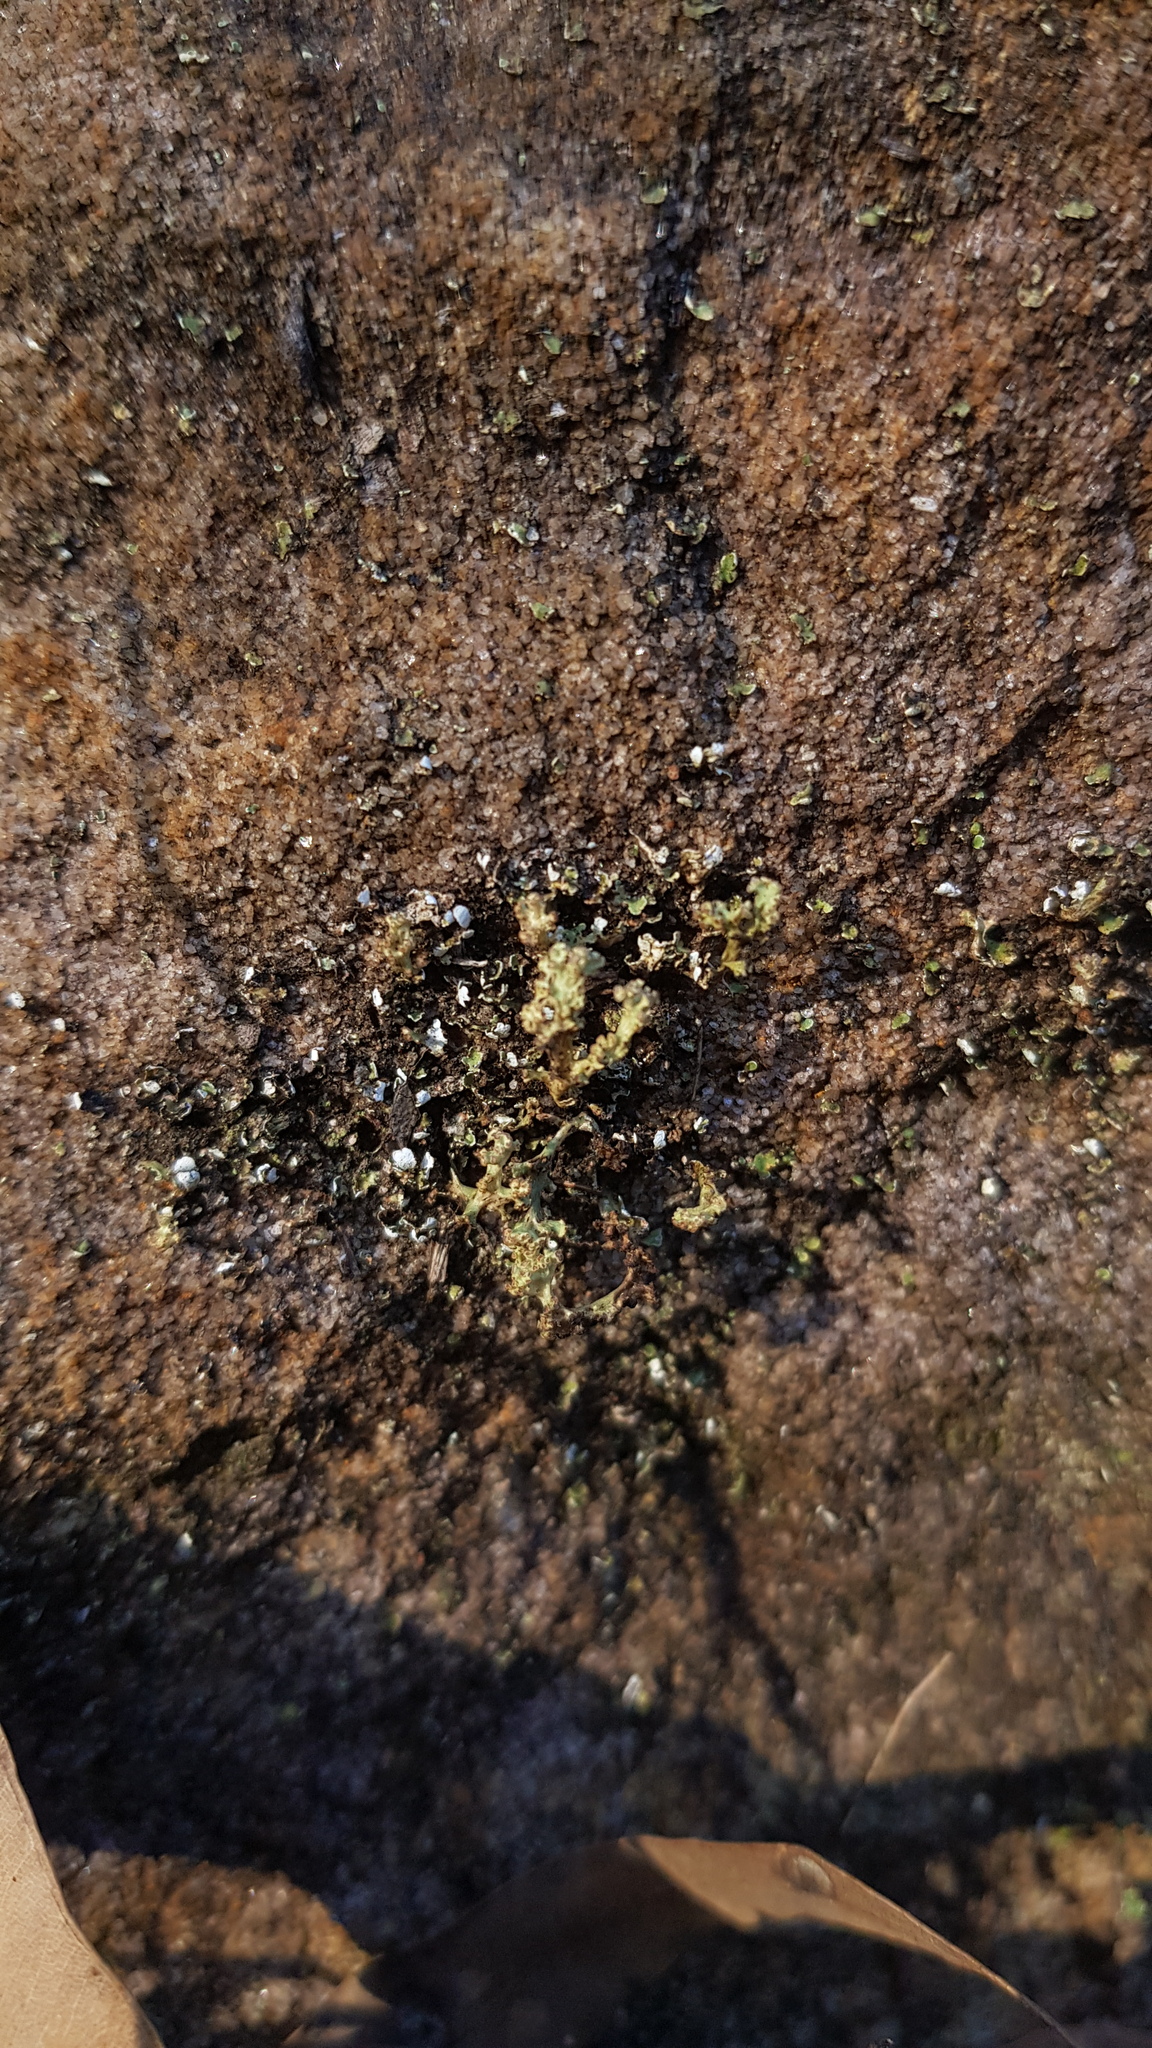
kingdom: Fungi
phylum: Ascomycota
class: Lecanoromycetes
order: Lecanorales
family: Cladoniaceae
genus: Notocladonia
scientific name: Notocladonia cochleata
